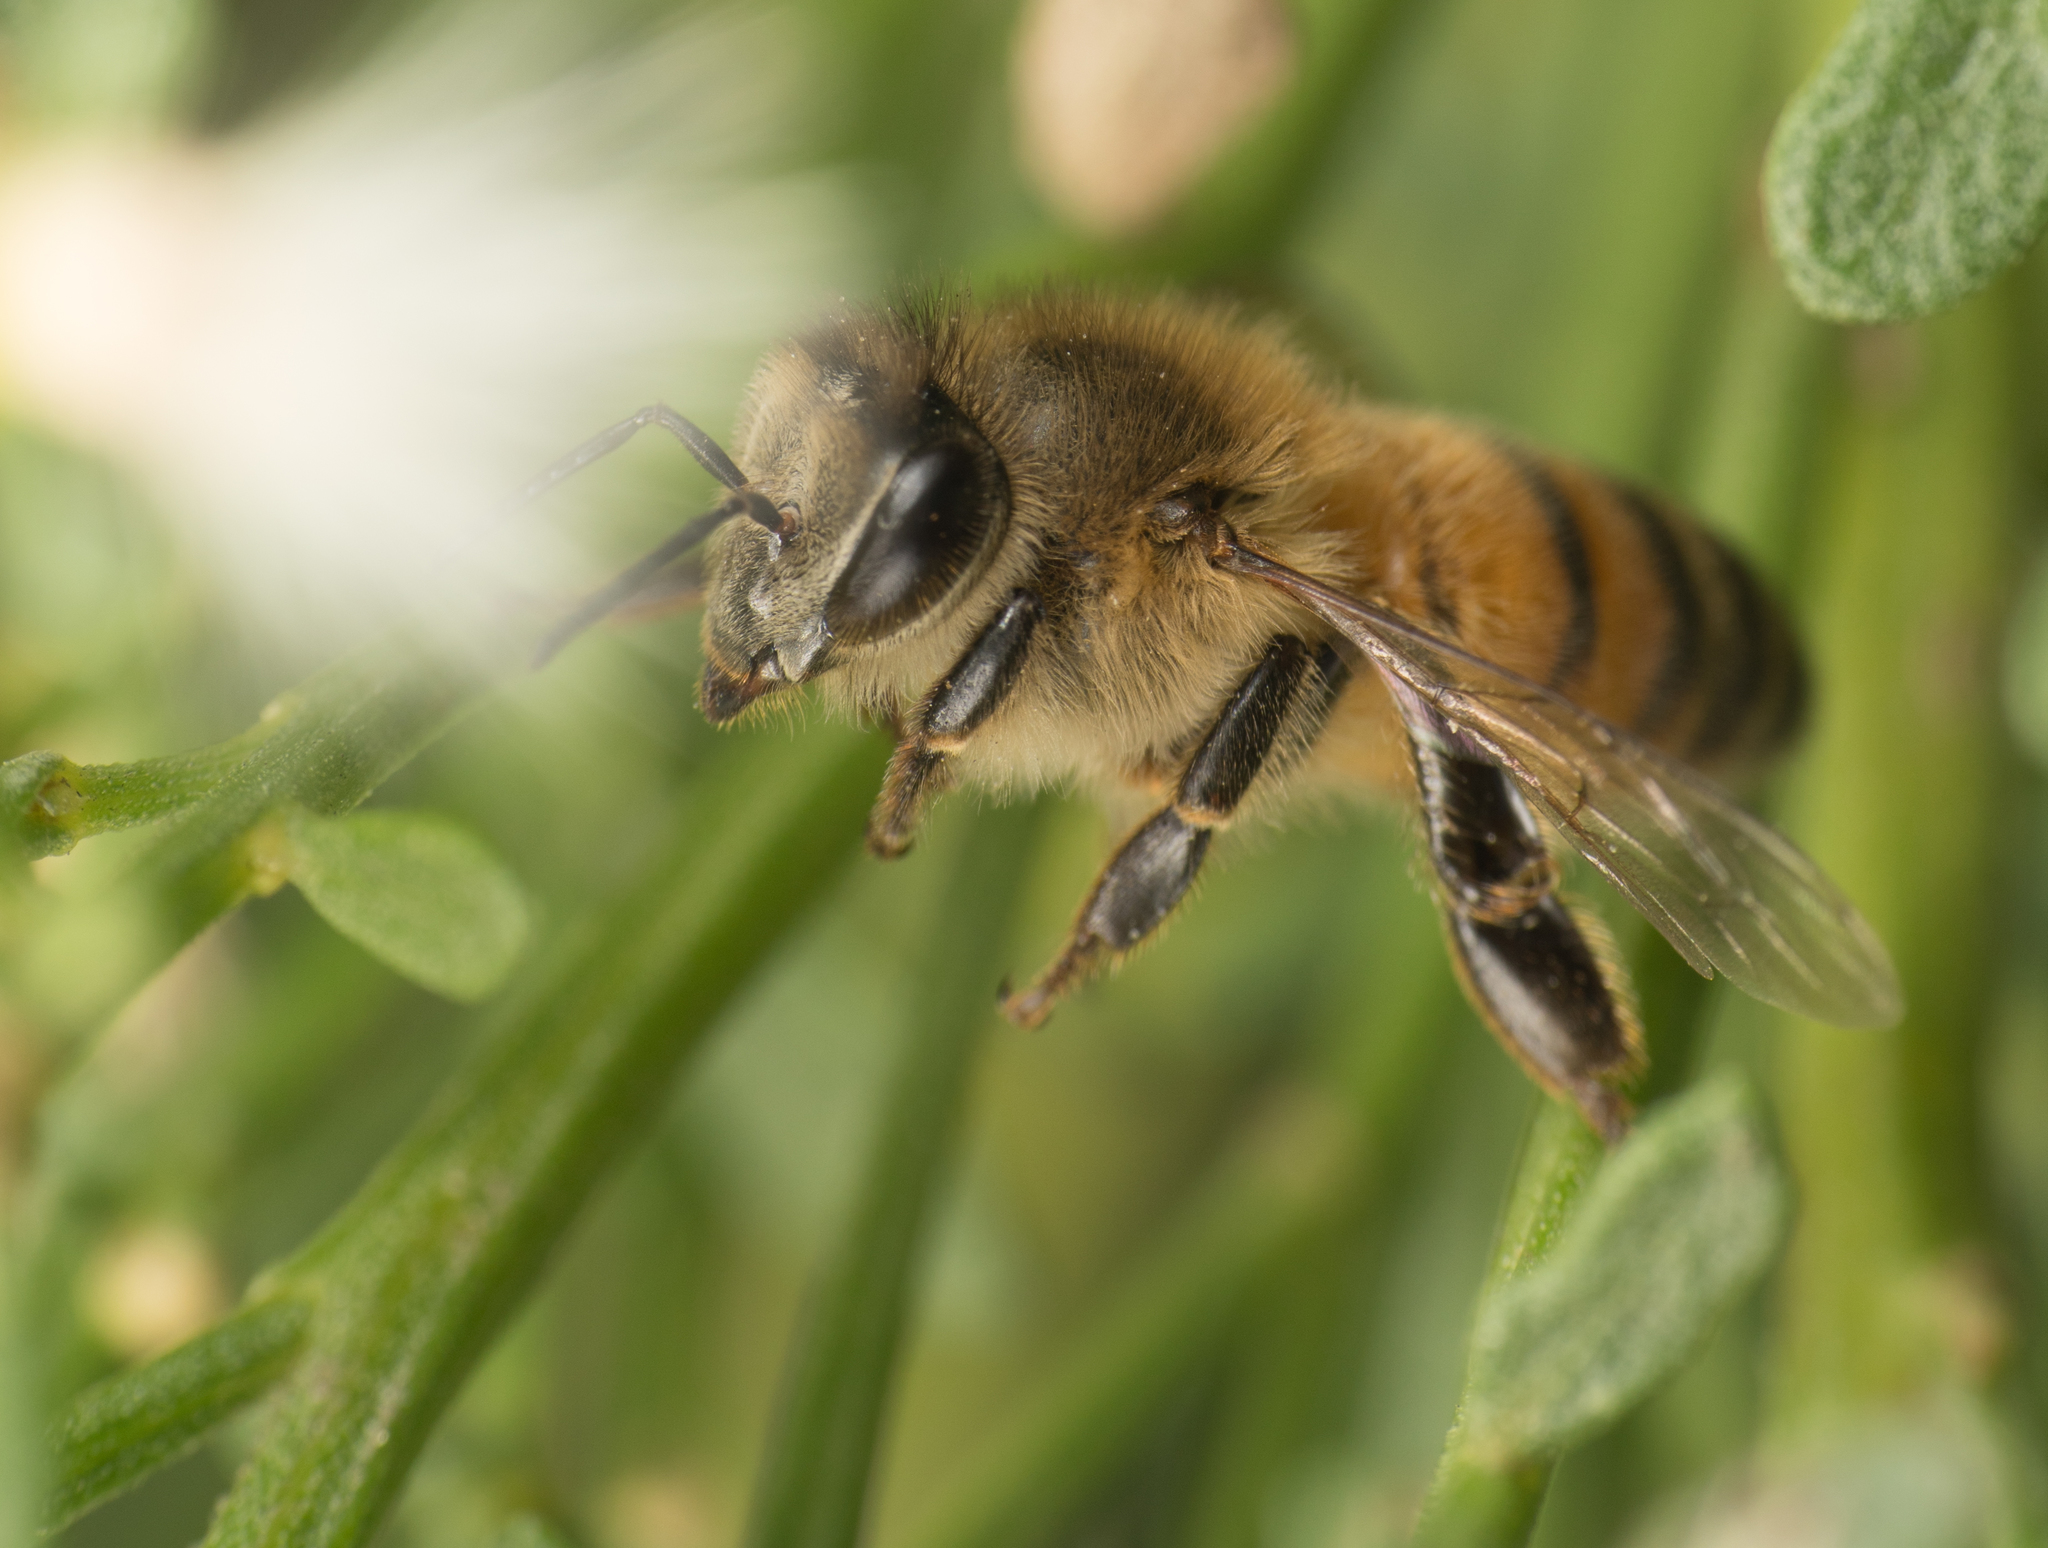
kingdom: Animalia
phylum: Arthropoda
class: Insecta
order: Hymenoptera
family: Apidae
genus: Apis
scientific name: Apis mellifera
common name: Honey bee
